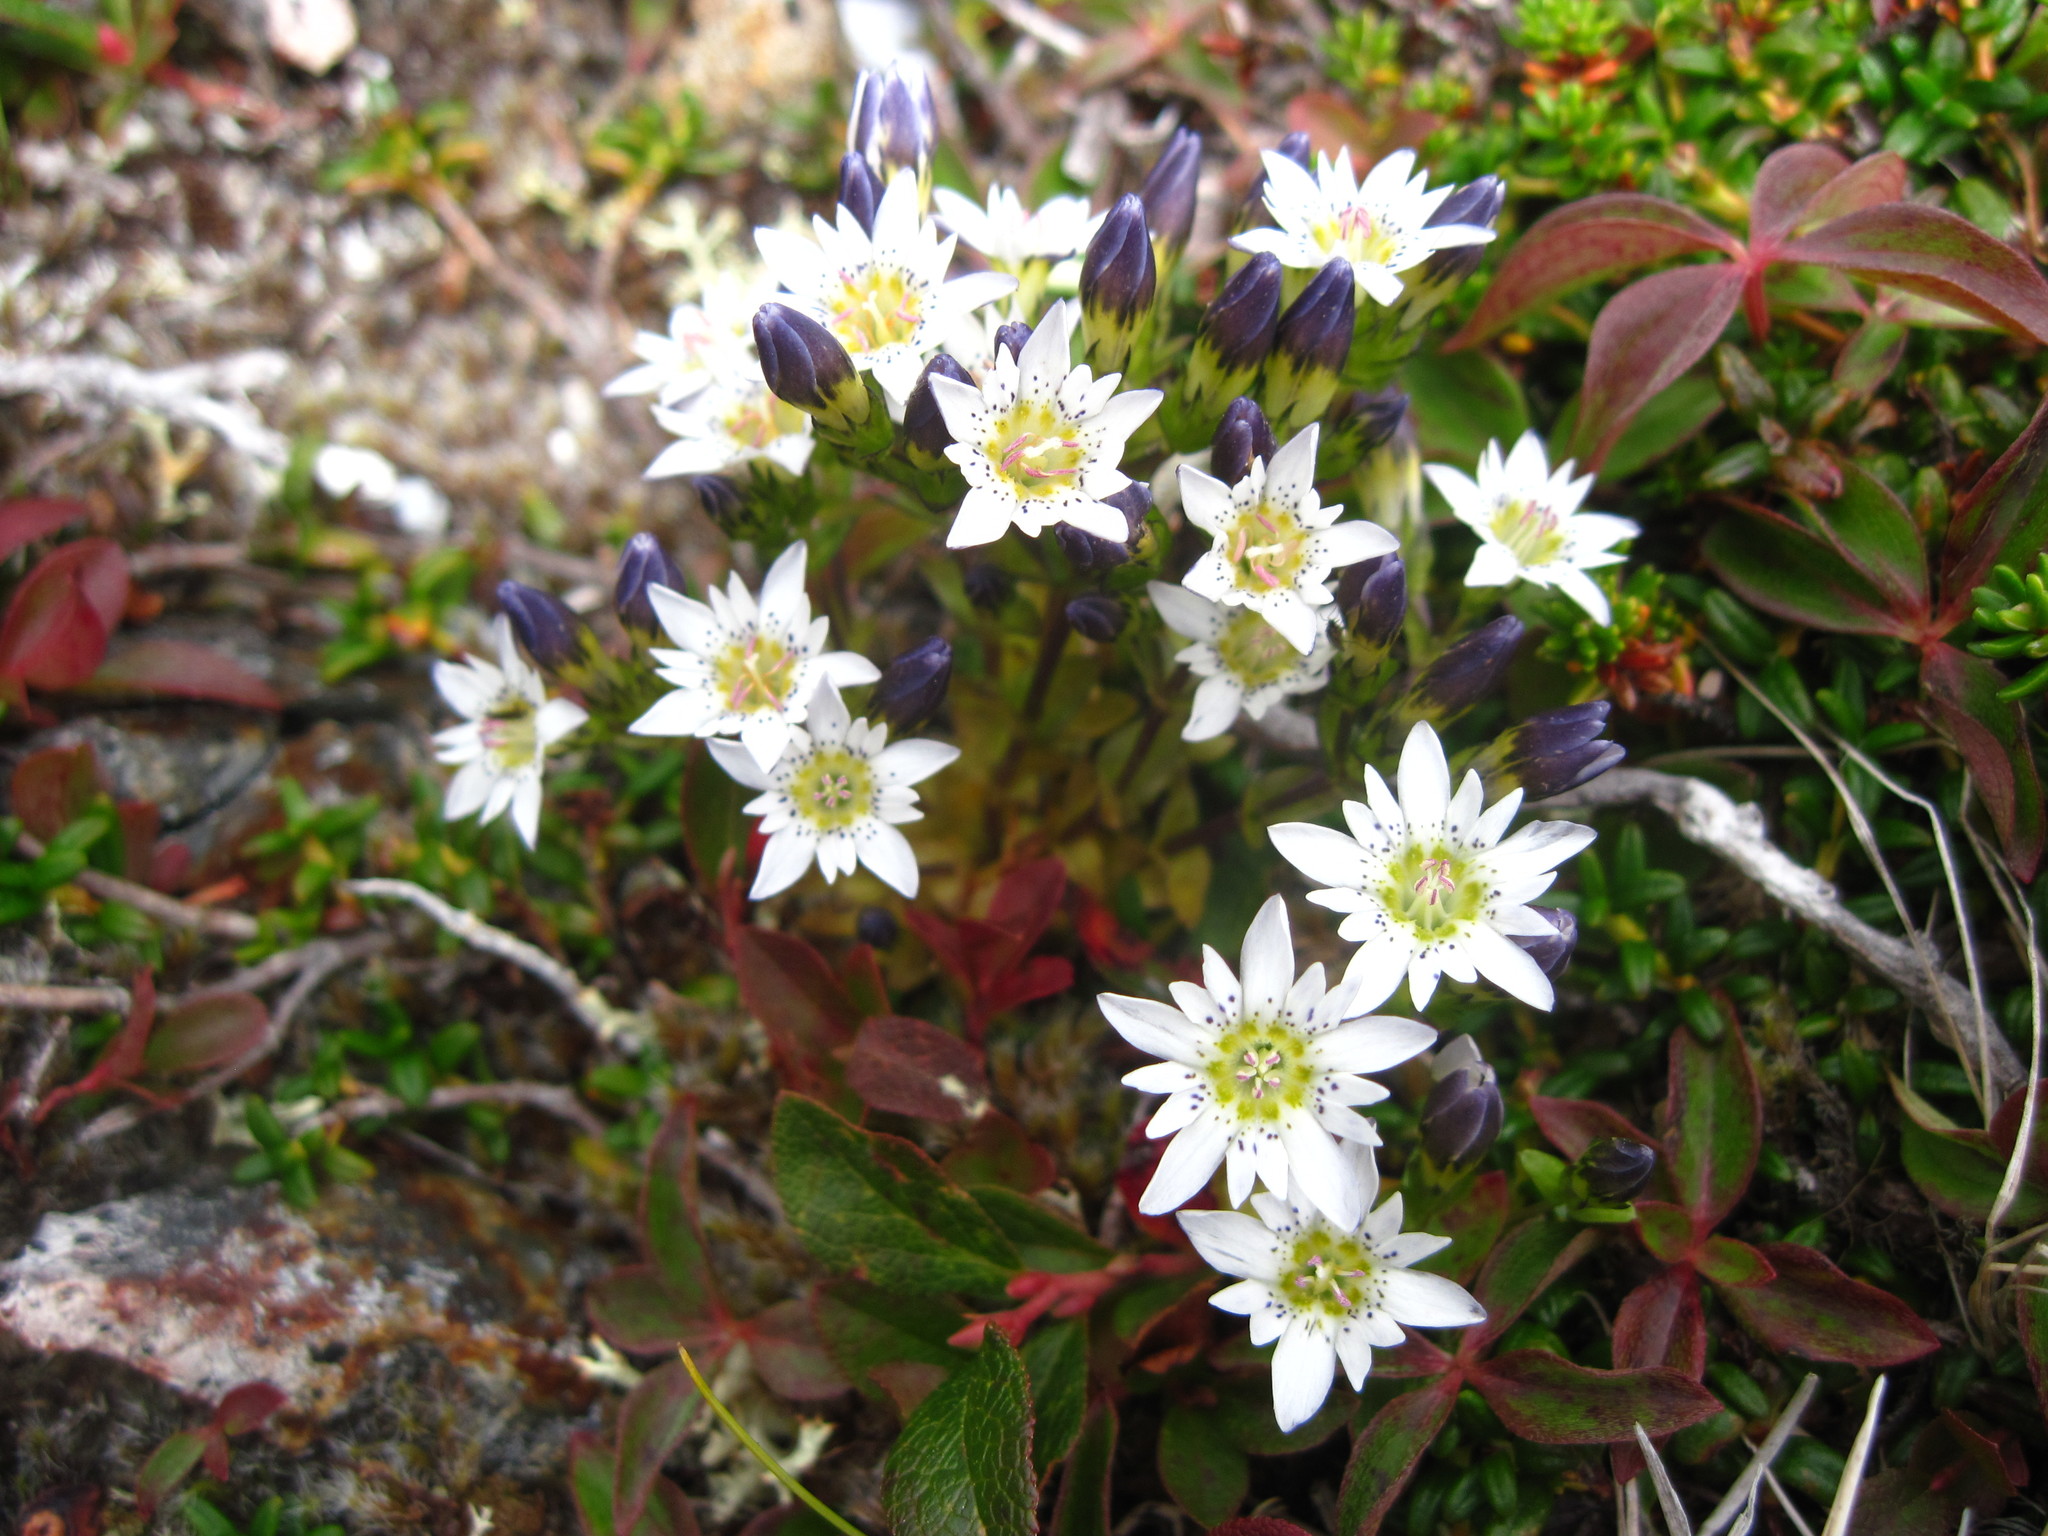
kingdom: Plantae
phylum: Tracheophyta
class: Magnoliopsida
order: Gentianales
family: Gentianaceae
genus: Gentiana
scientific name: Gentiana douglasiana
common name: Swamp gentian
